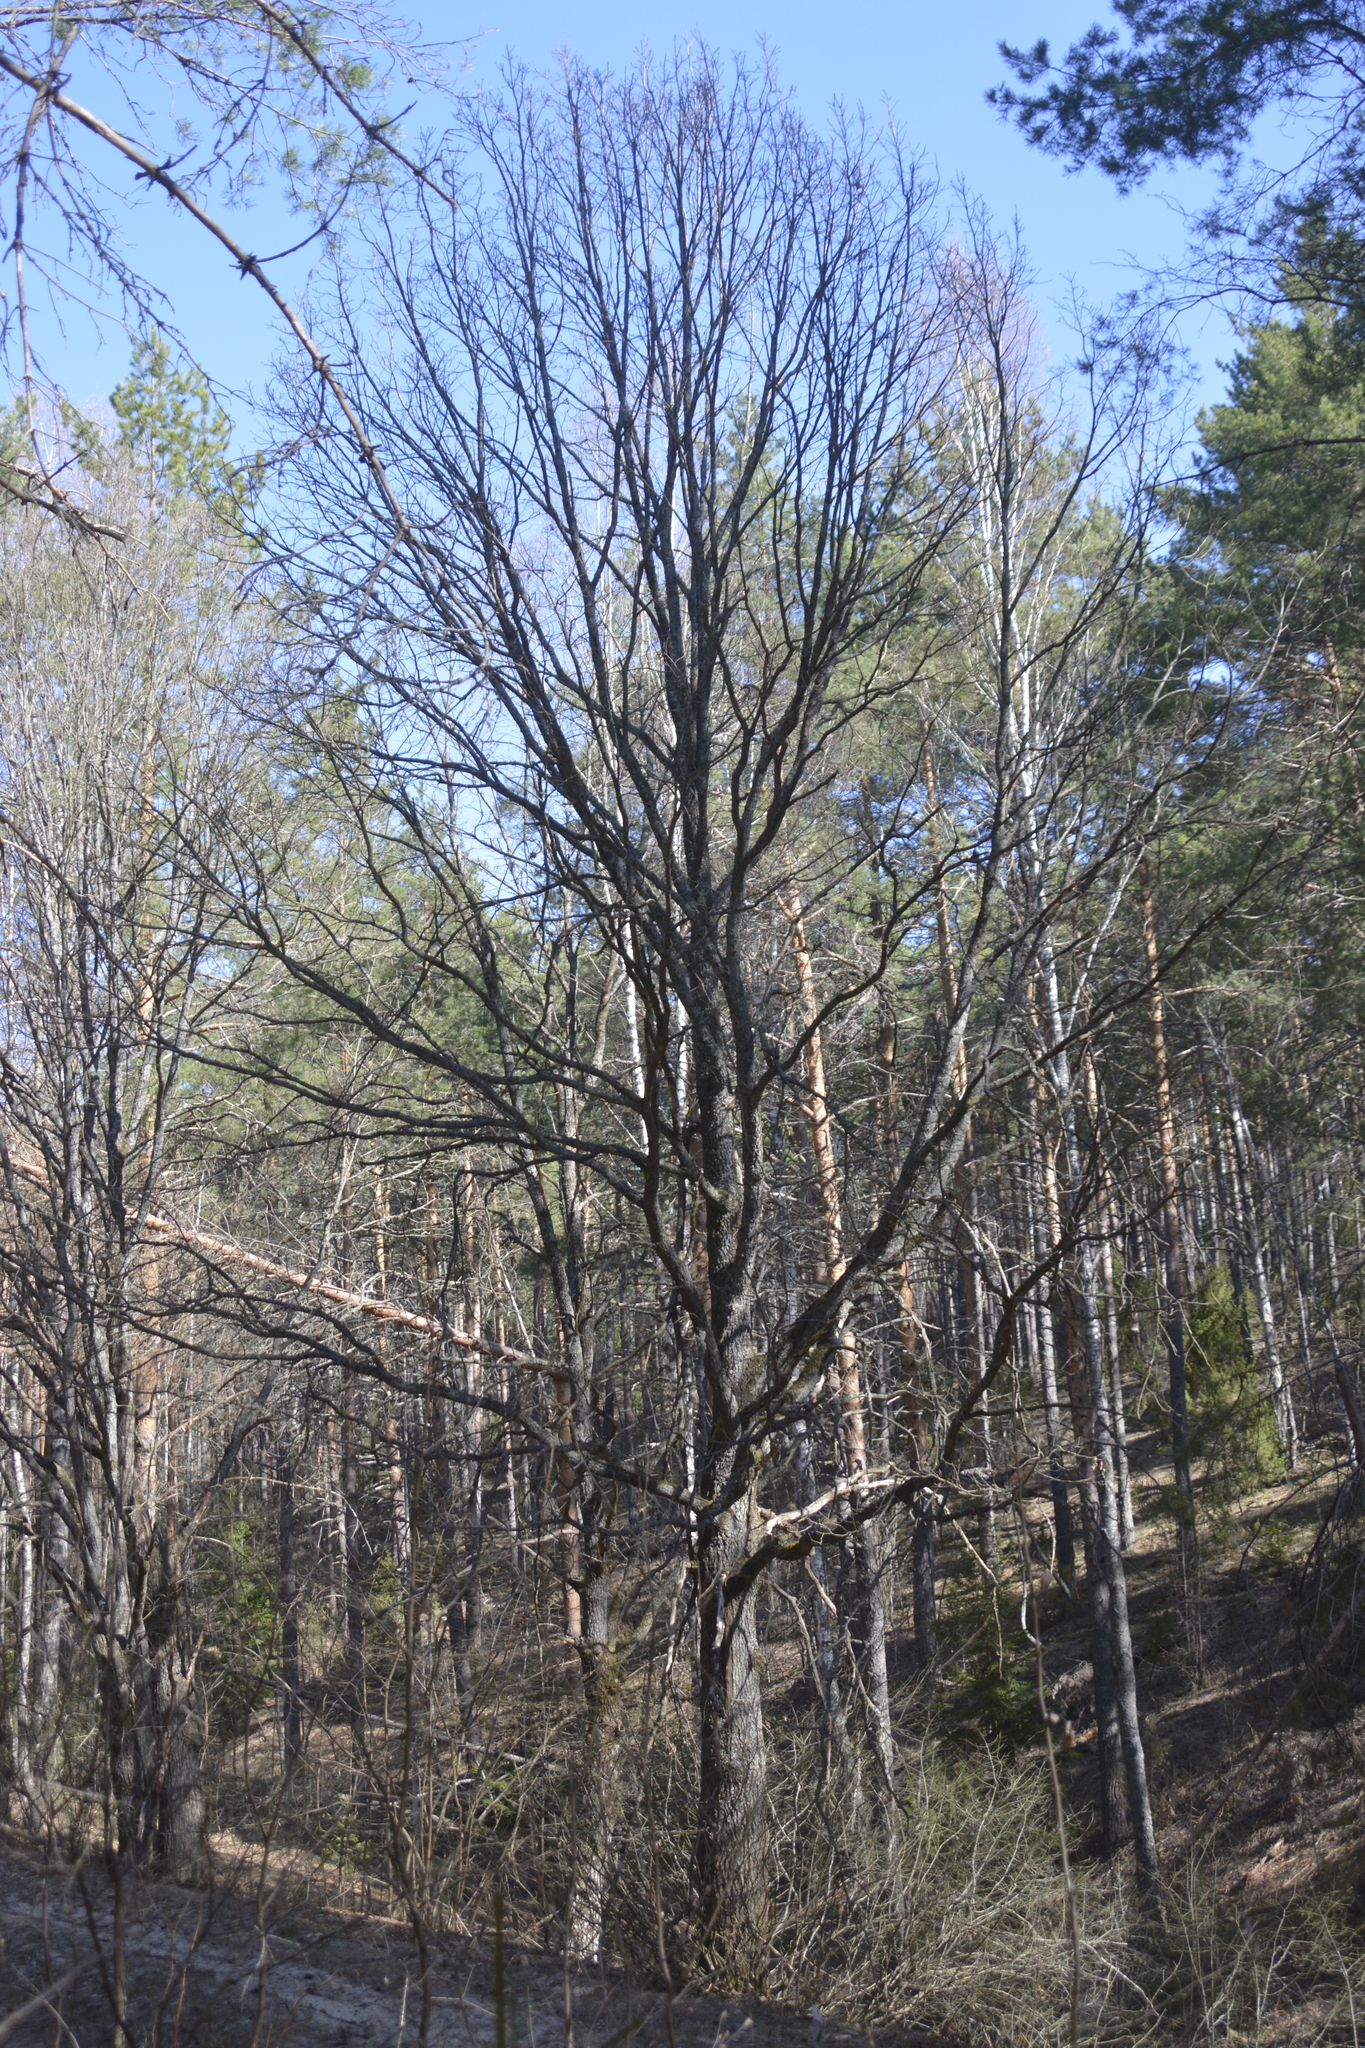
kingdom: Plantae
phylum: Tracheophyta
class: Magnoliopsida
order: Fagales
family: Fagaceae
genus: Quercus
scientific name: Quercus robur
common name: Pedunculate oak
